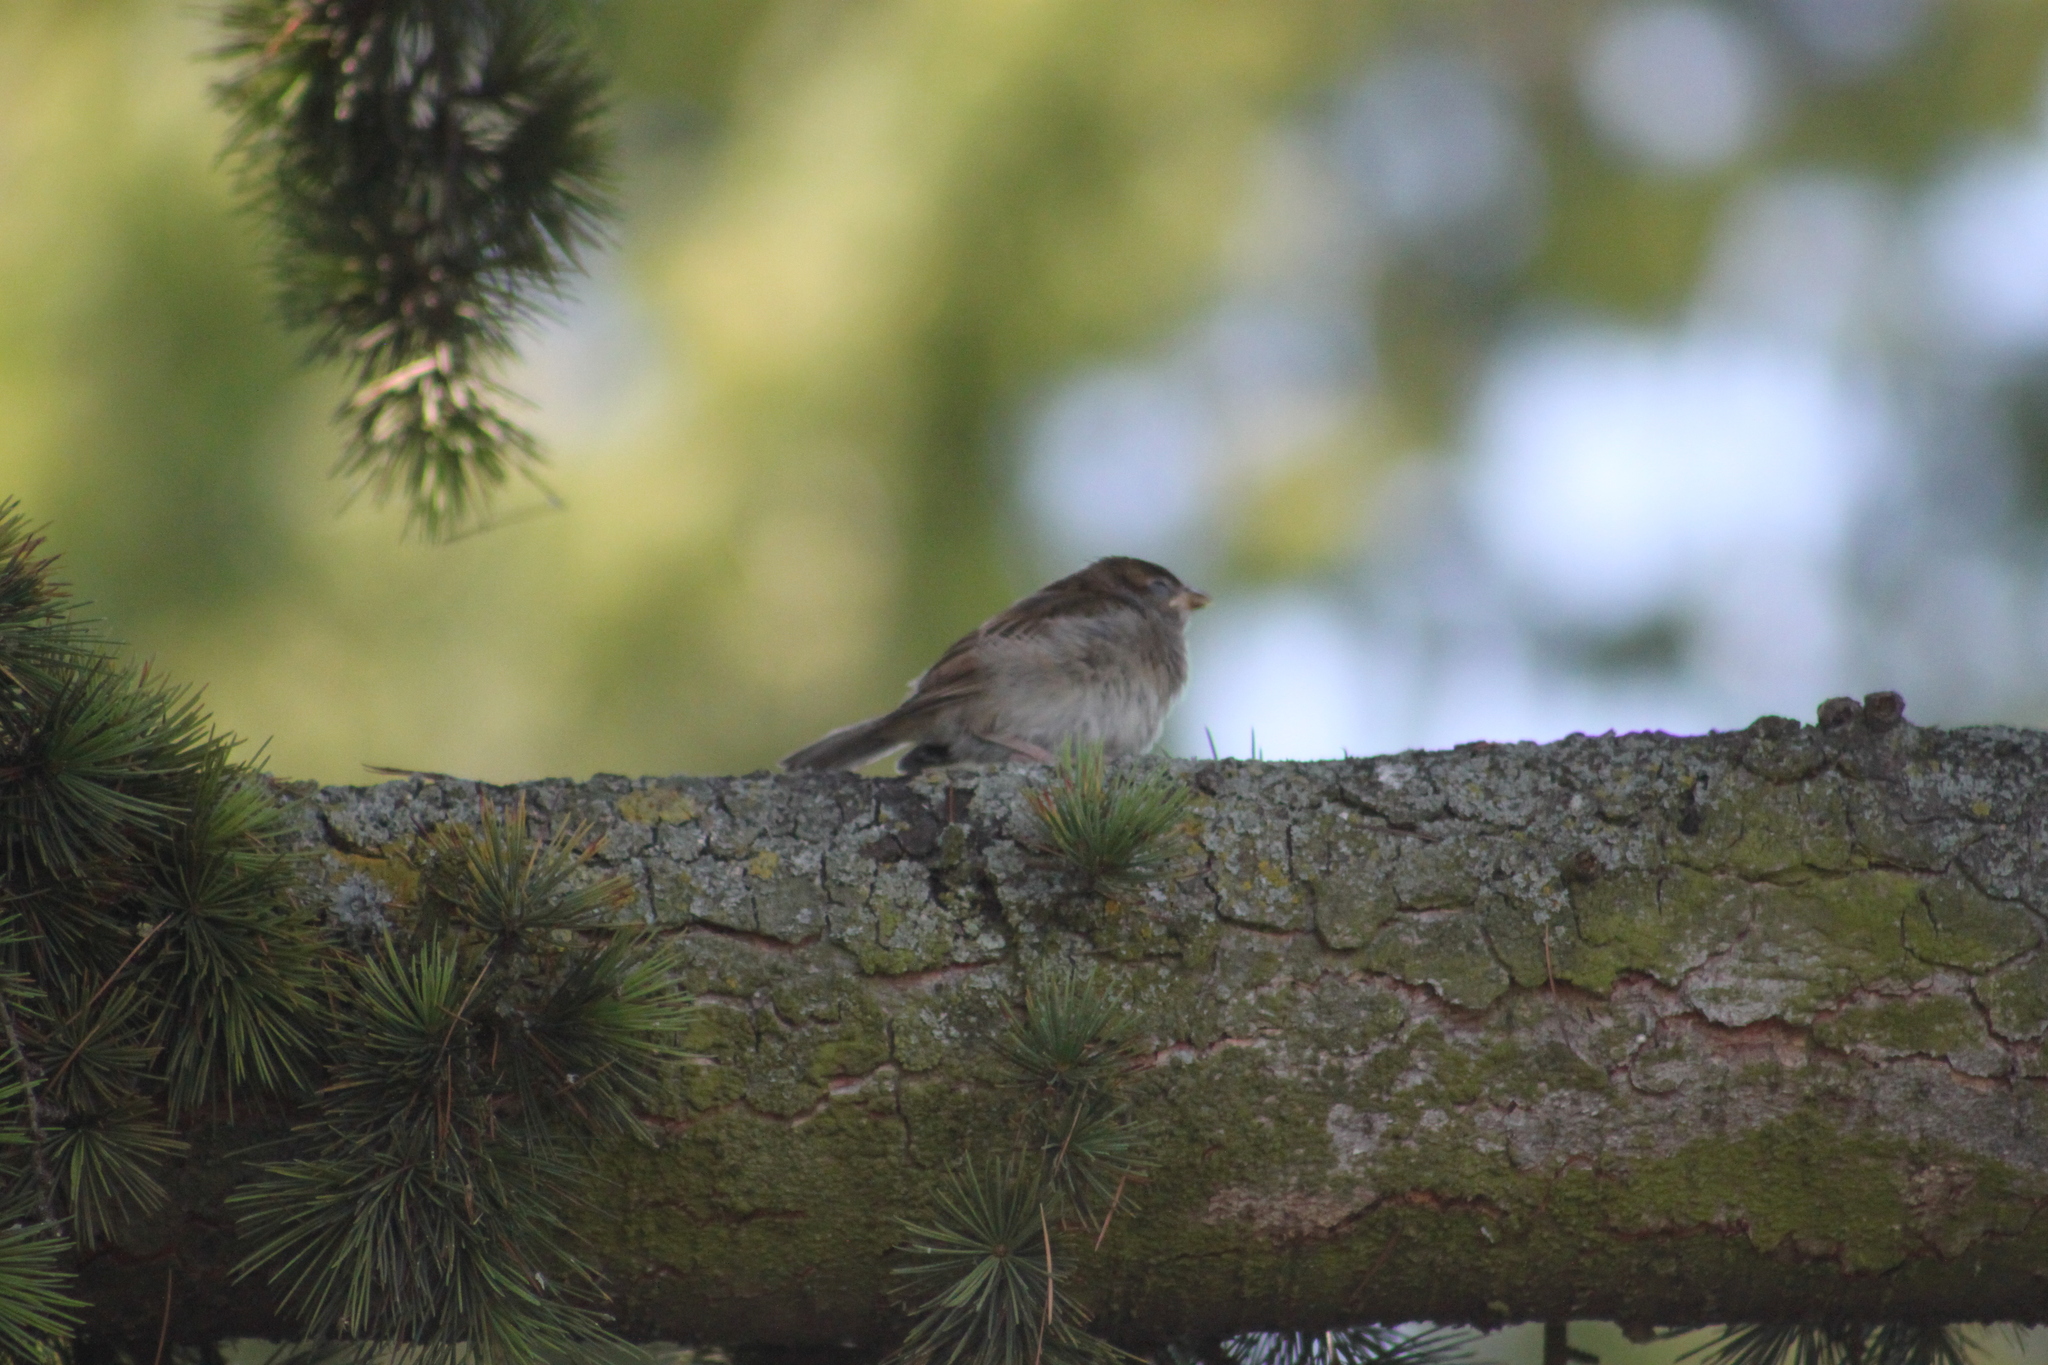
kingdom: Animalia
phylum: Chordata
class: Aves
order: Passeriformes
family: Passeridae
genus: Passer
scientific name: Passer domesticus
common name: House sparrow
